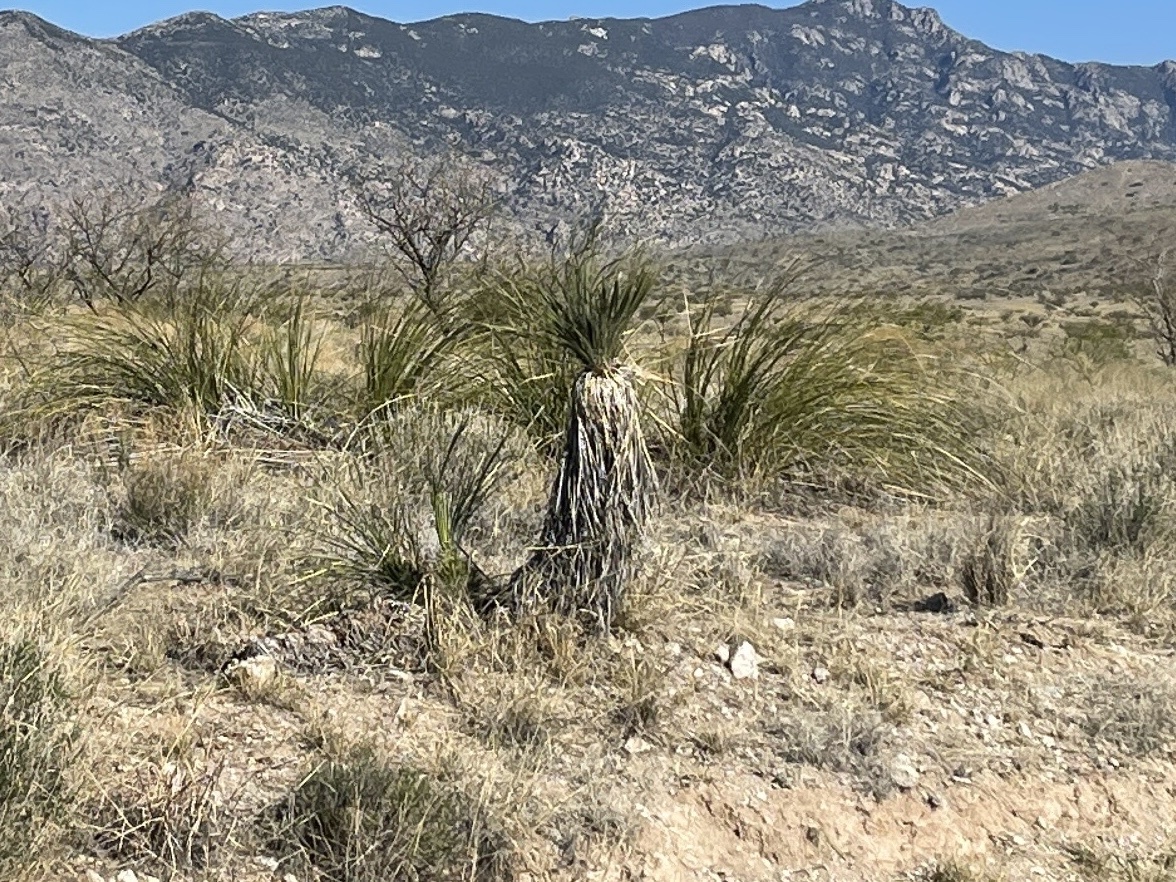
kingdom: Plantae
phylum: Tracheophyta
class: Liliopsida
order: Asparagales
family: Asparagaceae
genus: Yucca
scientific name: Yucca elata
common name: Palmella
